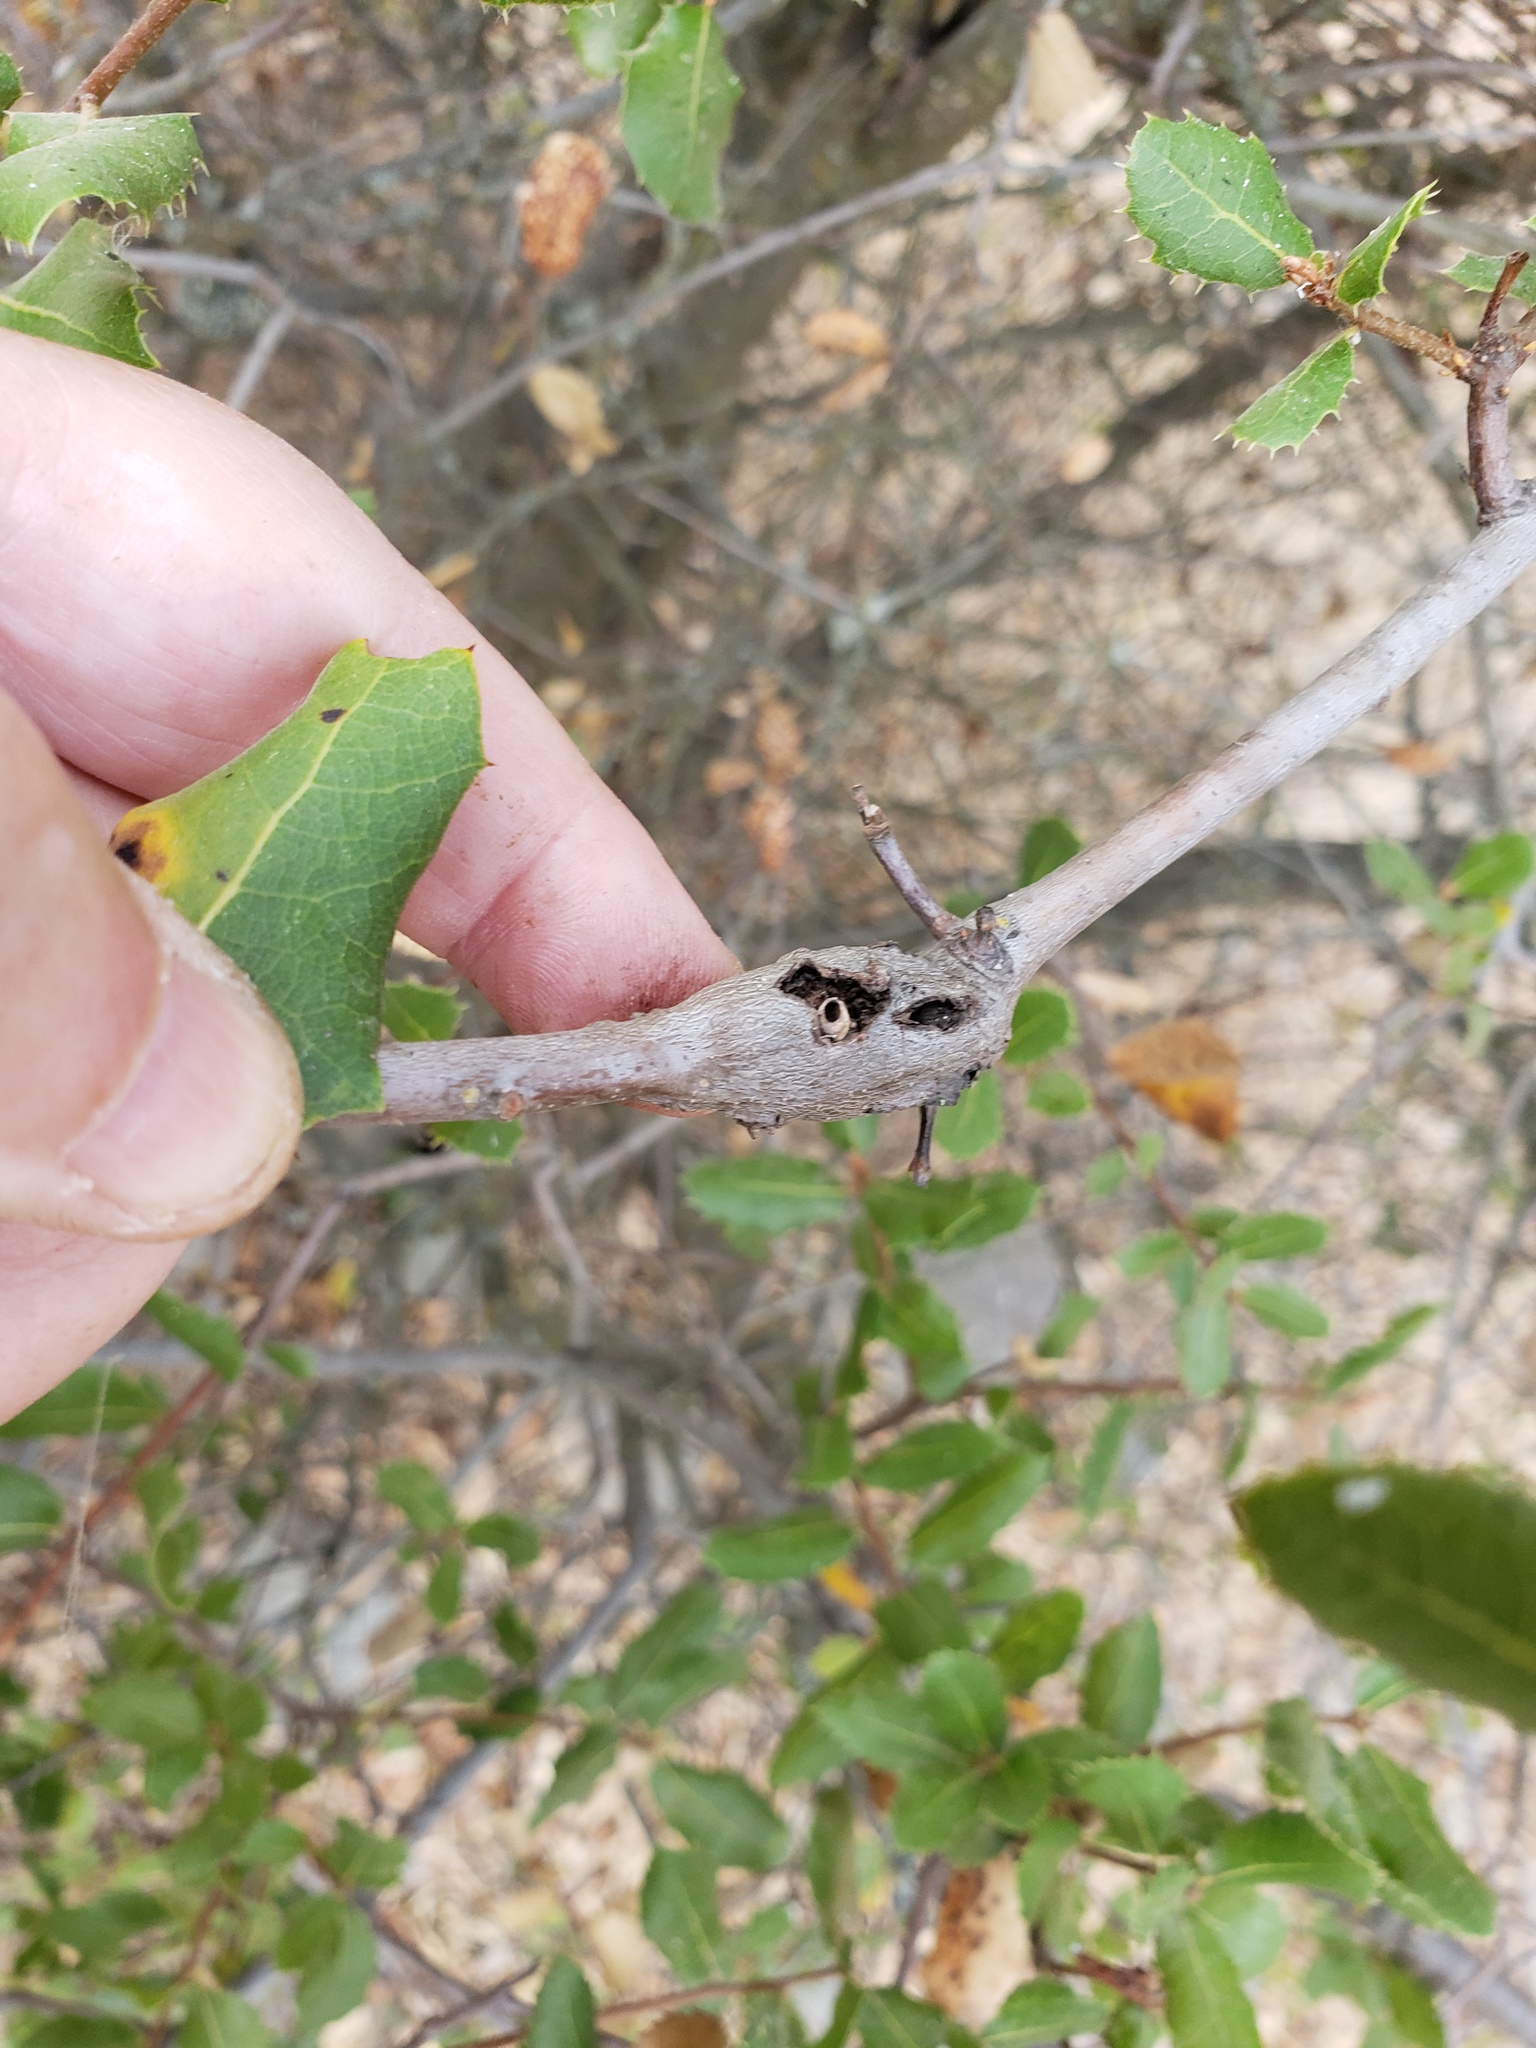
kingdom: Animalia
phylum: Arthropoda
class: Insecta
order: Hymenoptera
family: Cynipidae
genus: Callirhytis
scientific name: Callirhytis
